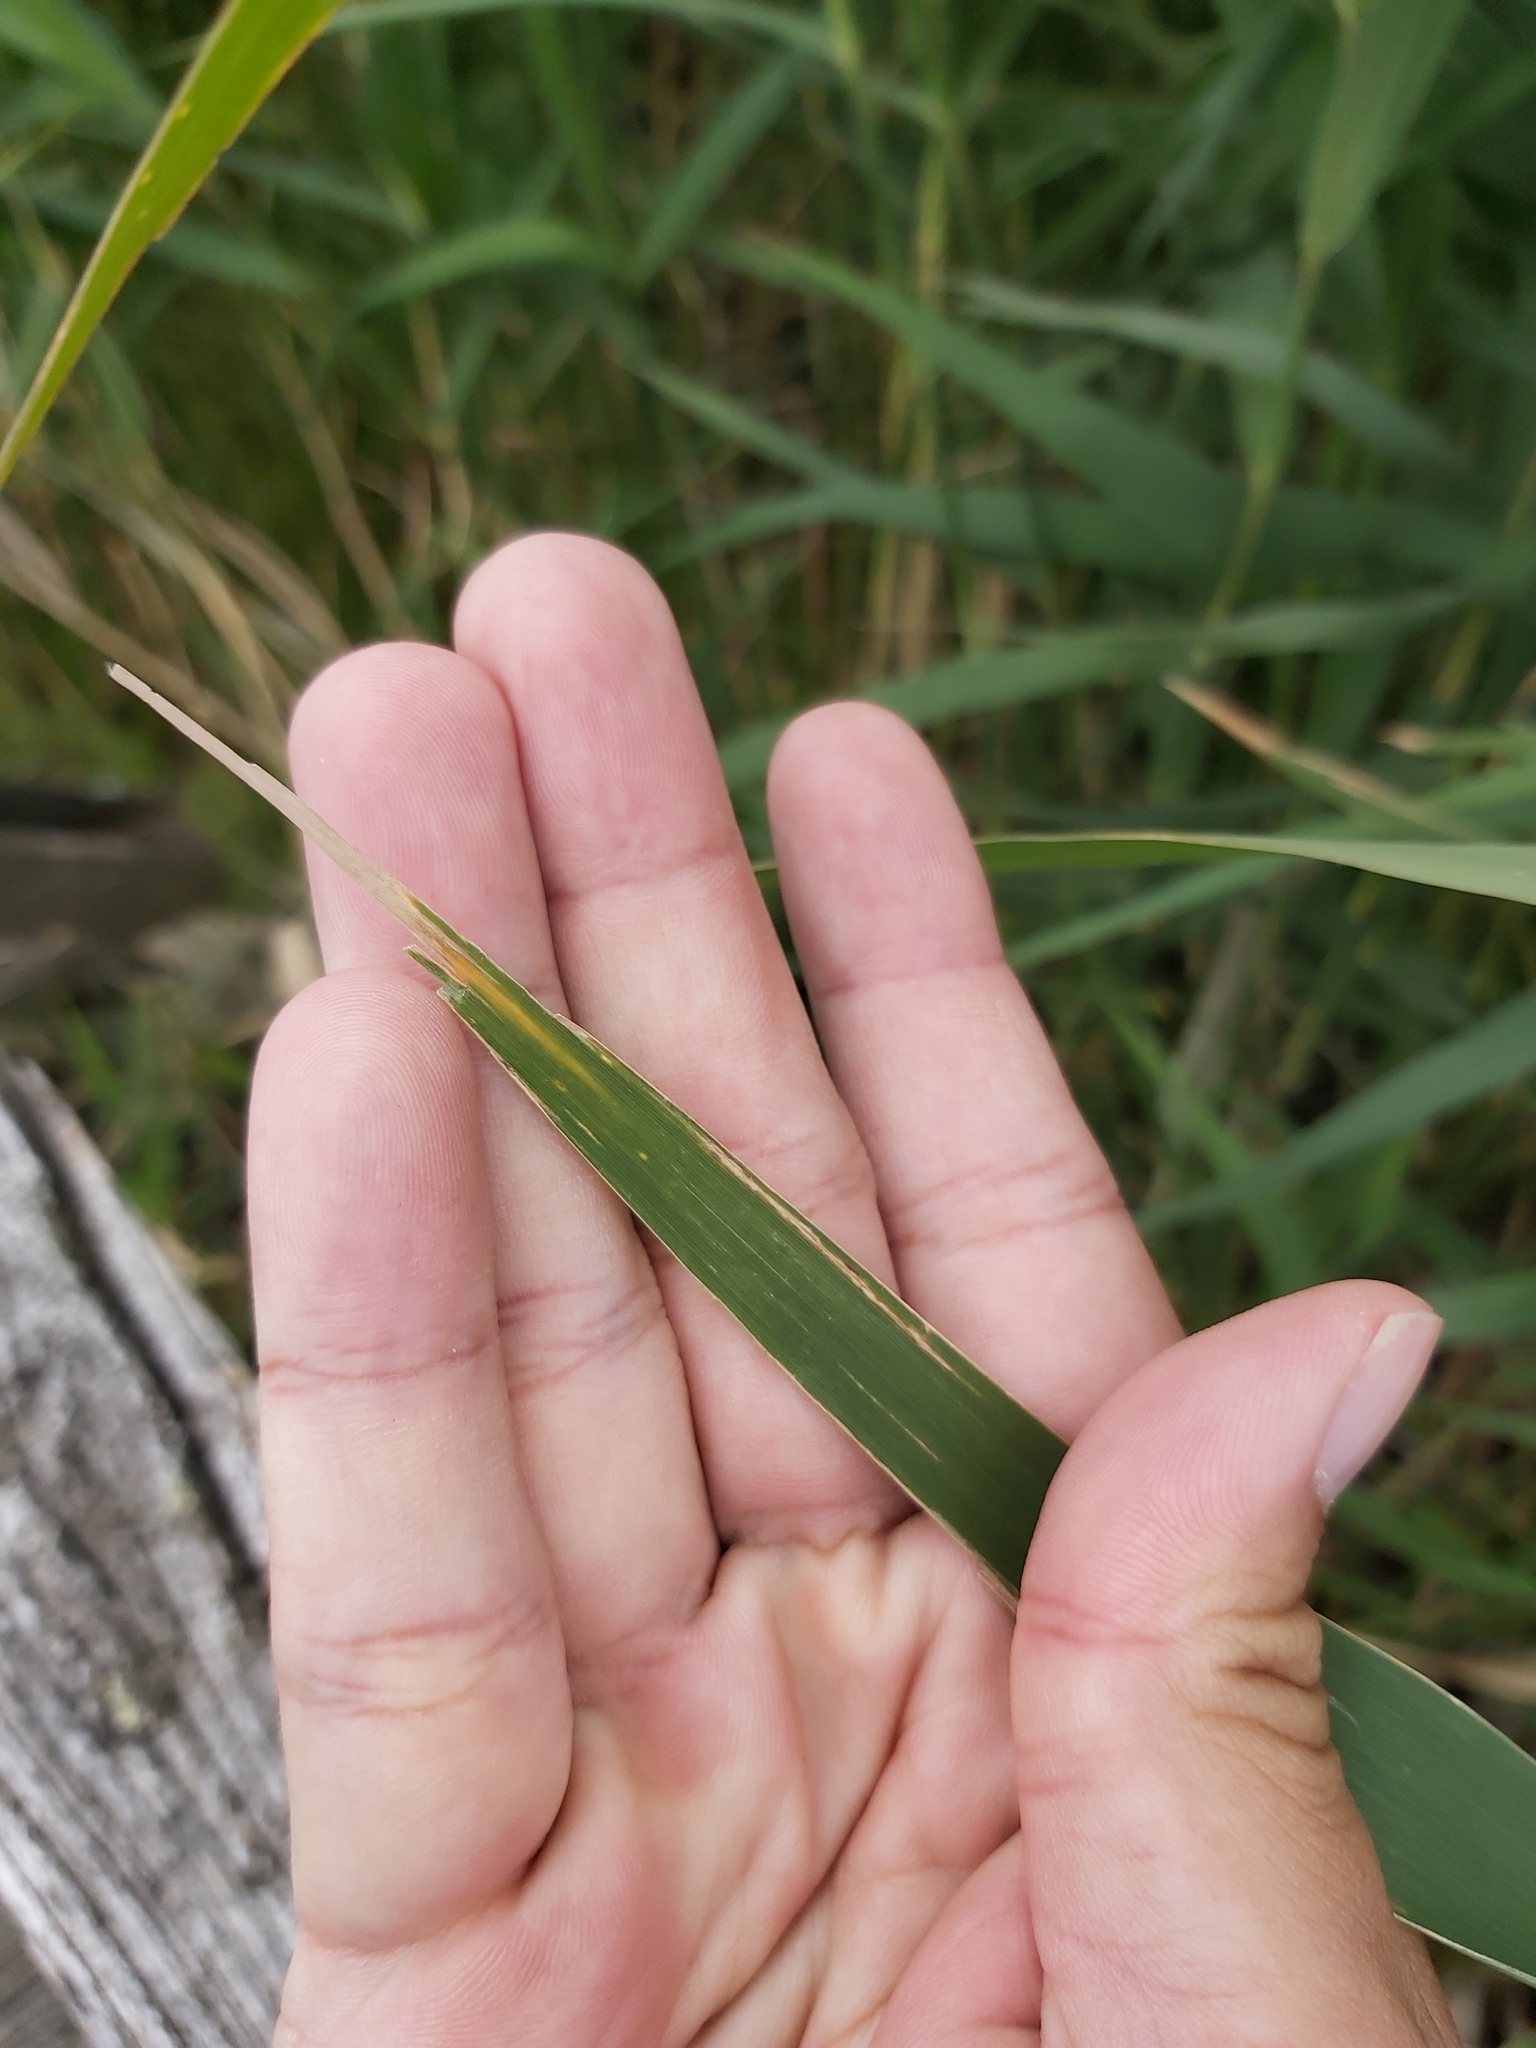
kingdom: Plantae
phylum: Tracheophyta
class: Liliopsida
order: Poales
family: Poaceae
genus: Phragmites
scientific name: Phragmites australis
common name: Common reed
